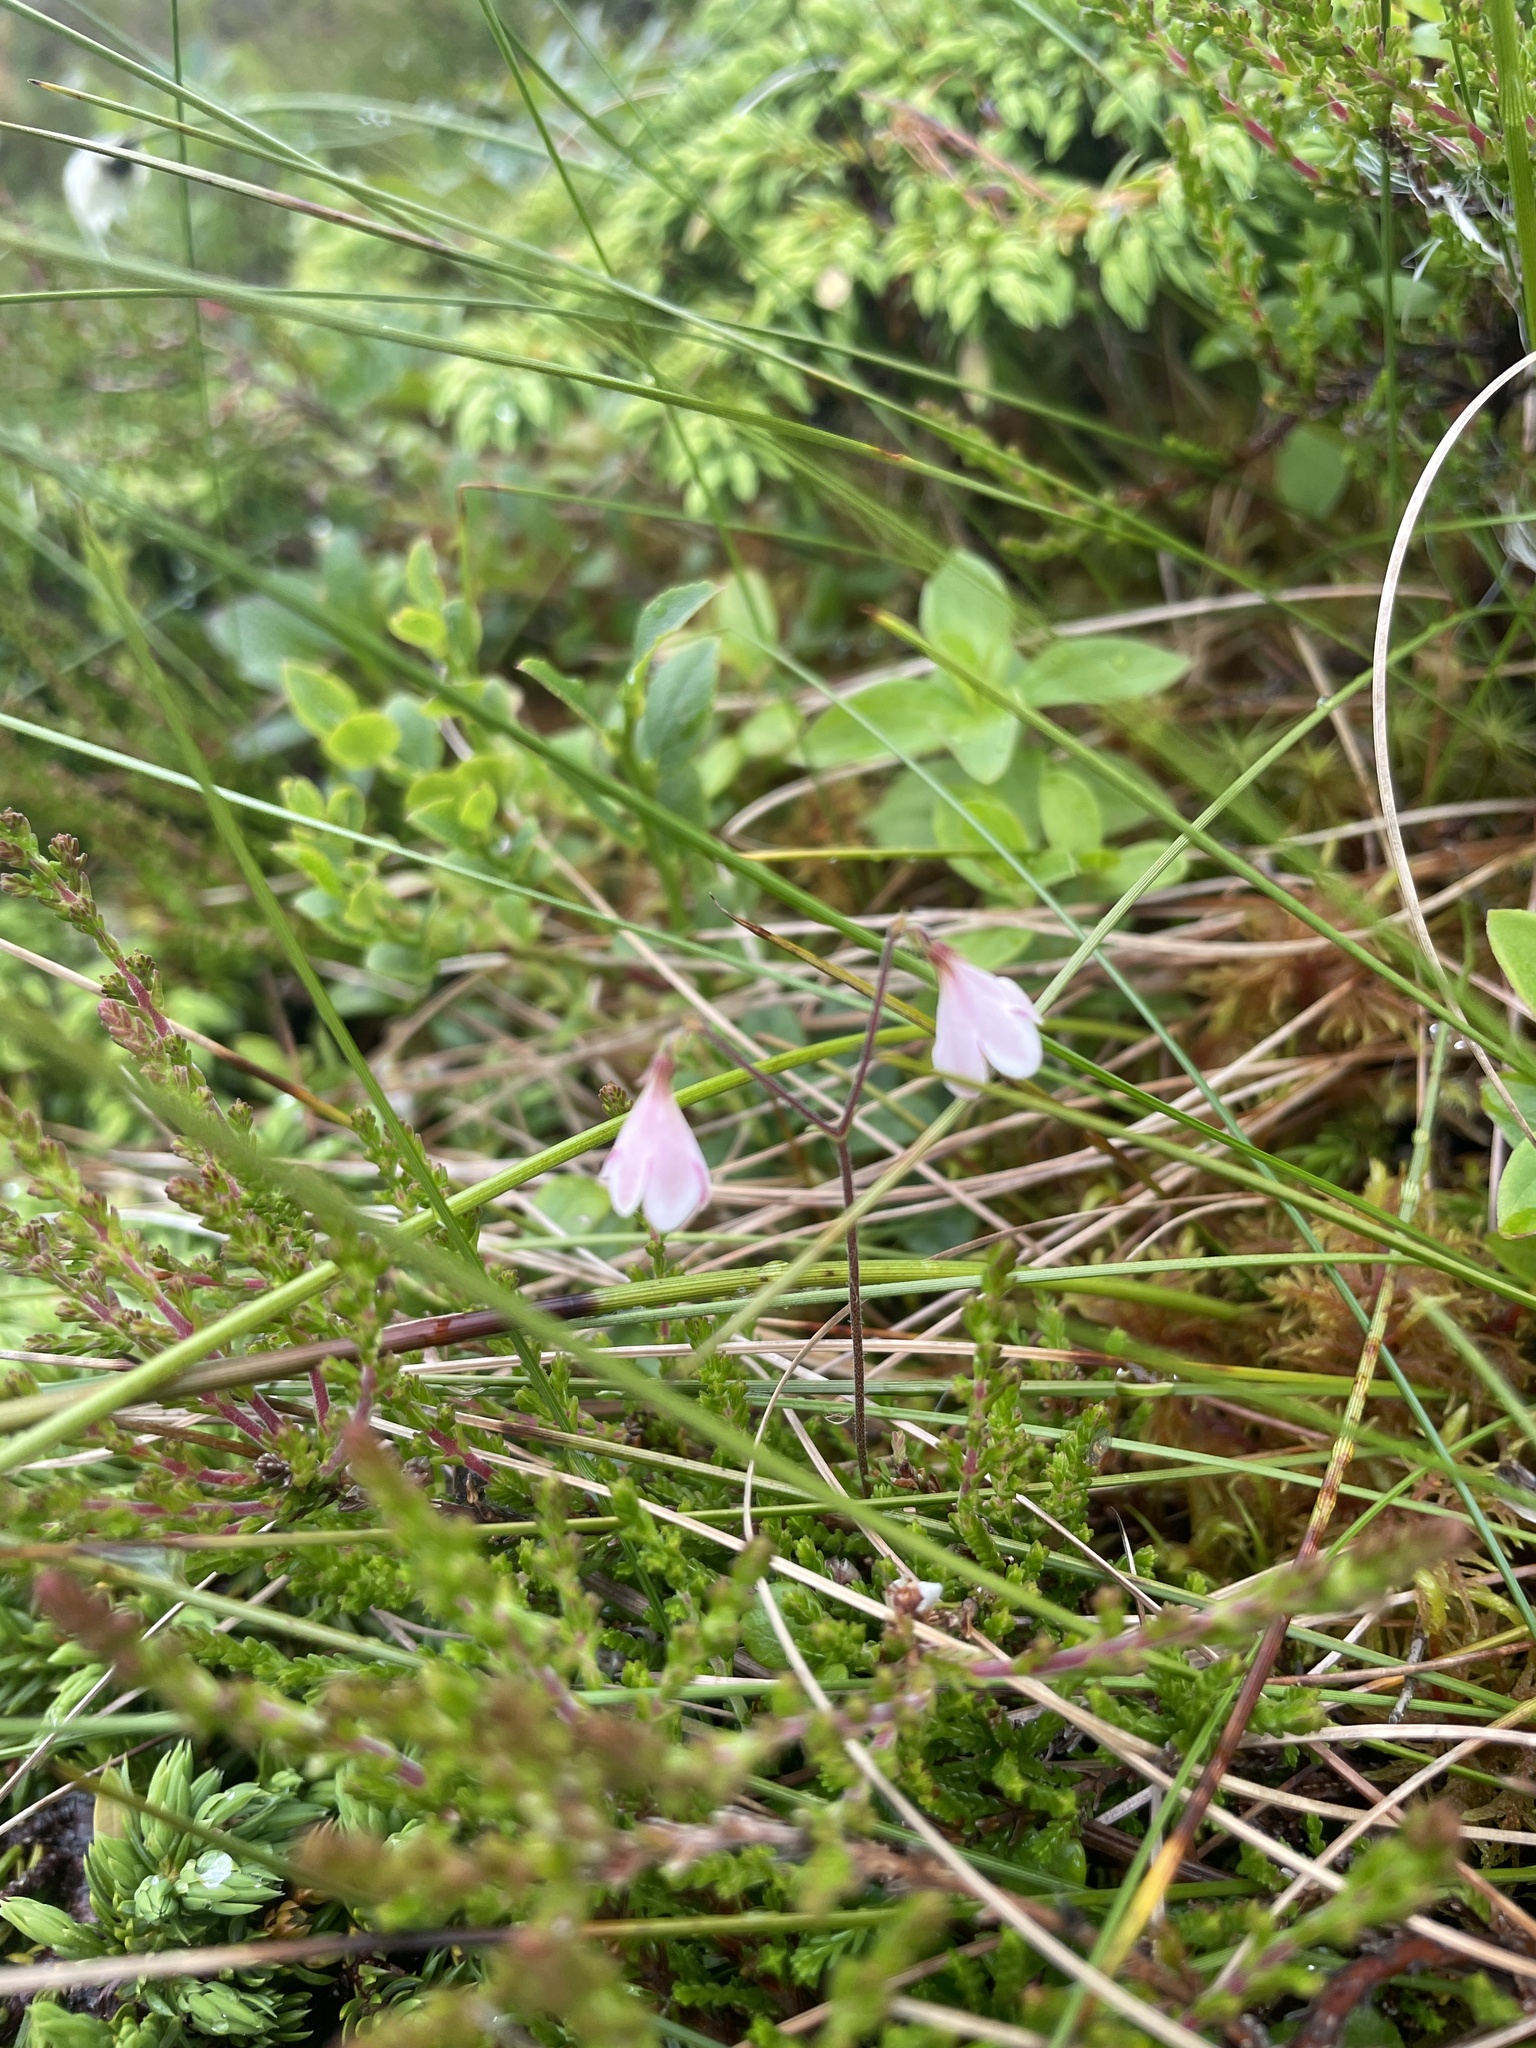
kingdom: Plantae
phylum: Tracheophyta
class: Magnoliopsida
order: Dipsacales
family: Caprifoliaceae
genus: Linnaea
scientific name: Linnaea borealis
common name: Twinflower
